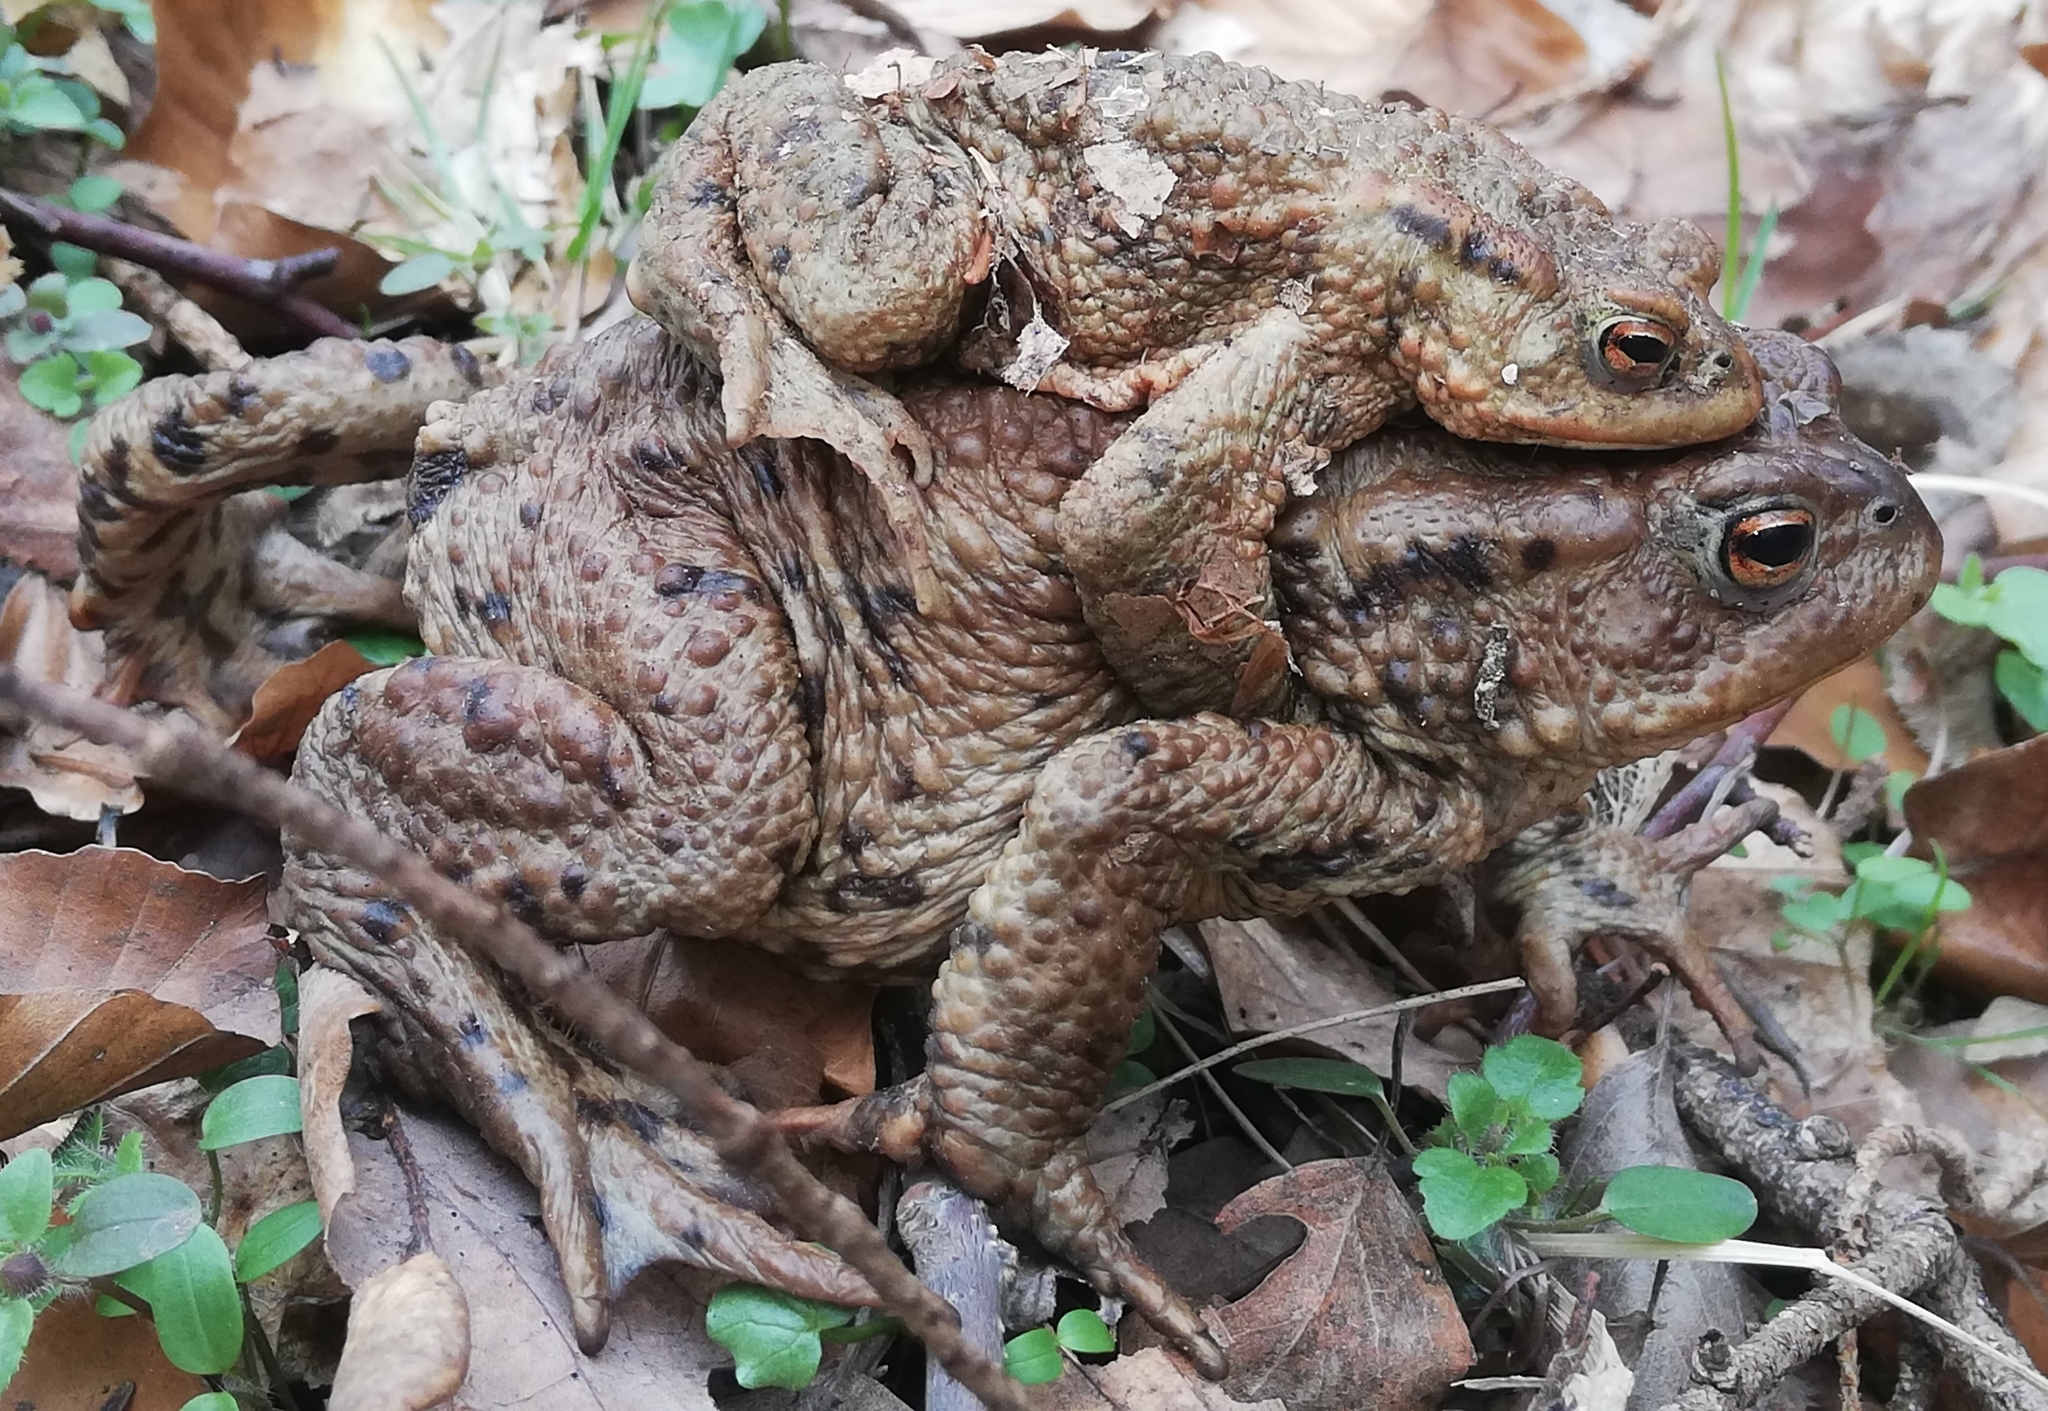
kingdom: Animalia
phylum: Chordata
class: Amphibia
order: Anura
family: Bufonidae
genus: Bufo
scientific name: Bufo bufo
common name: Common toad
